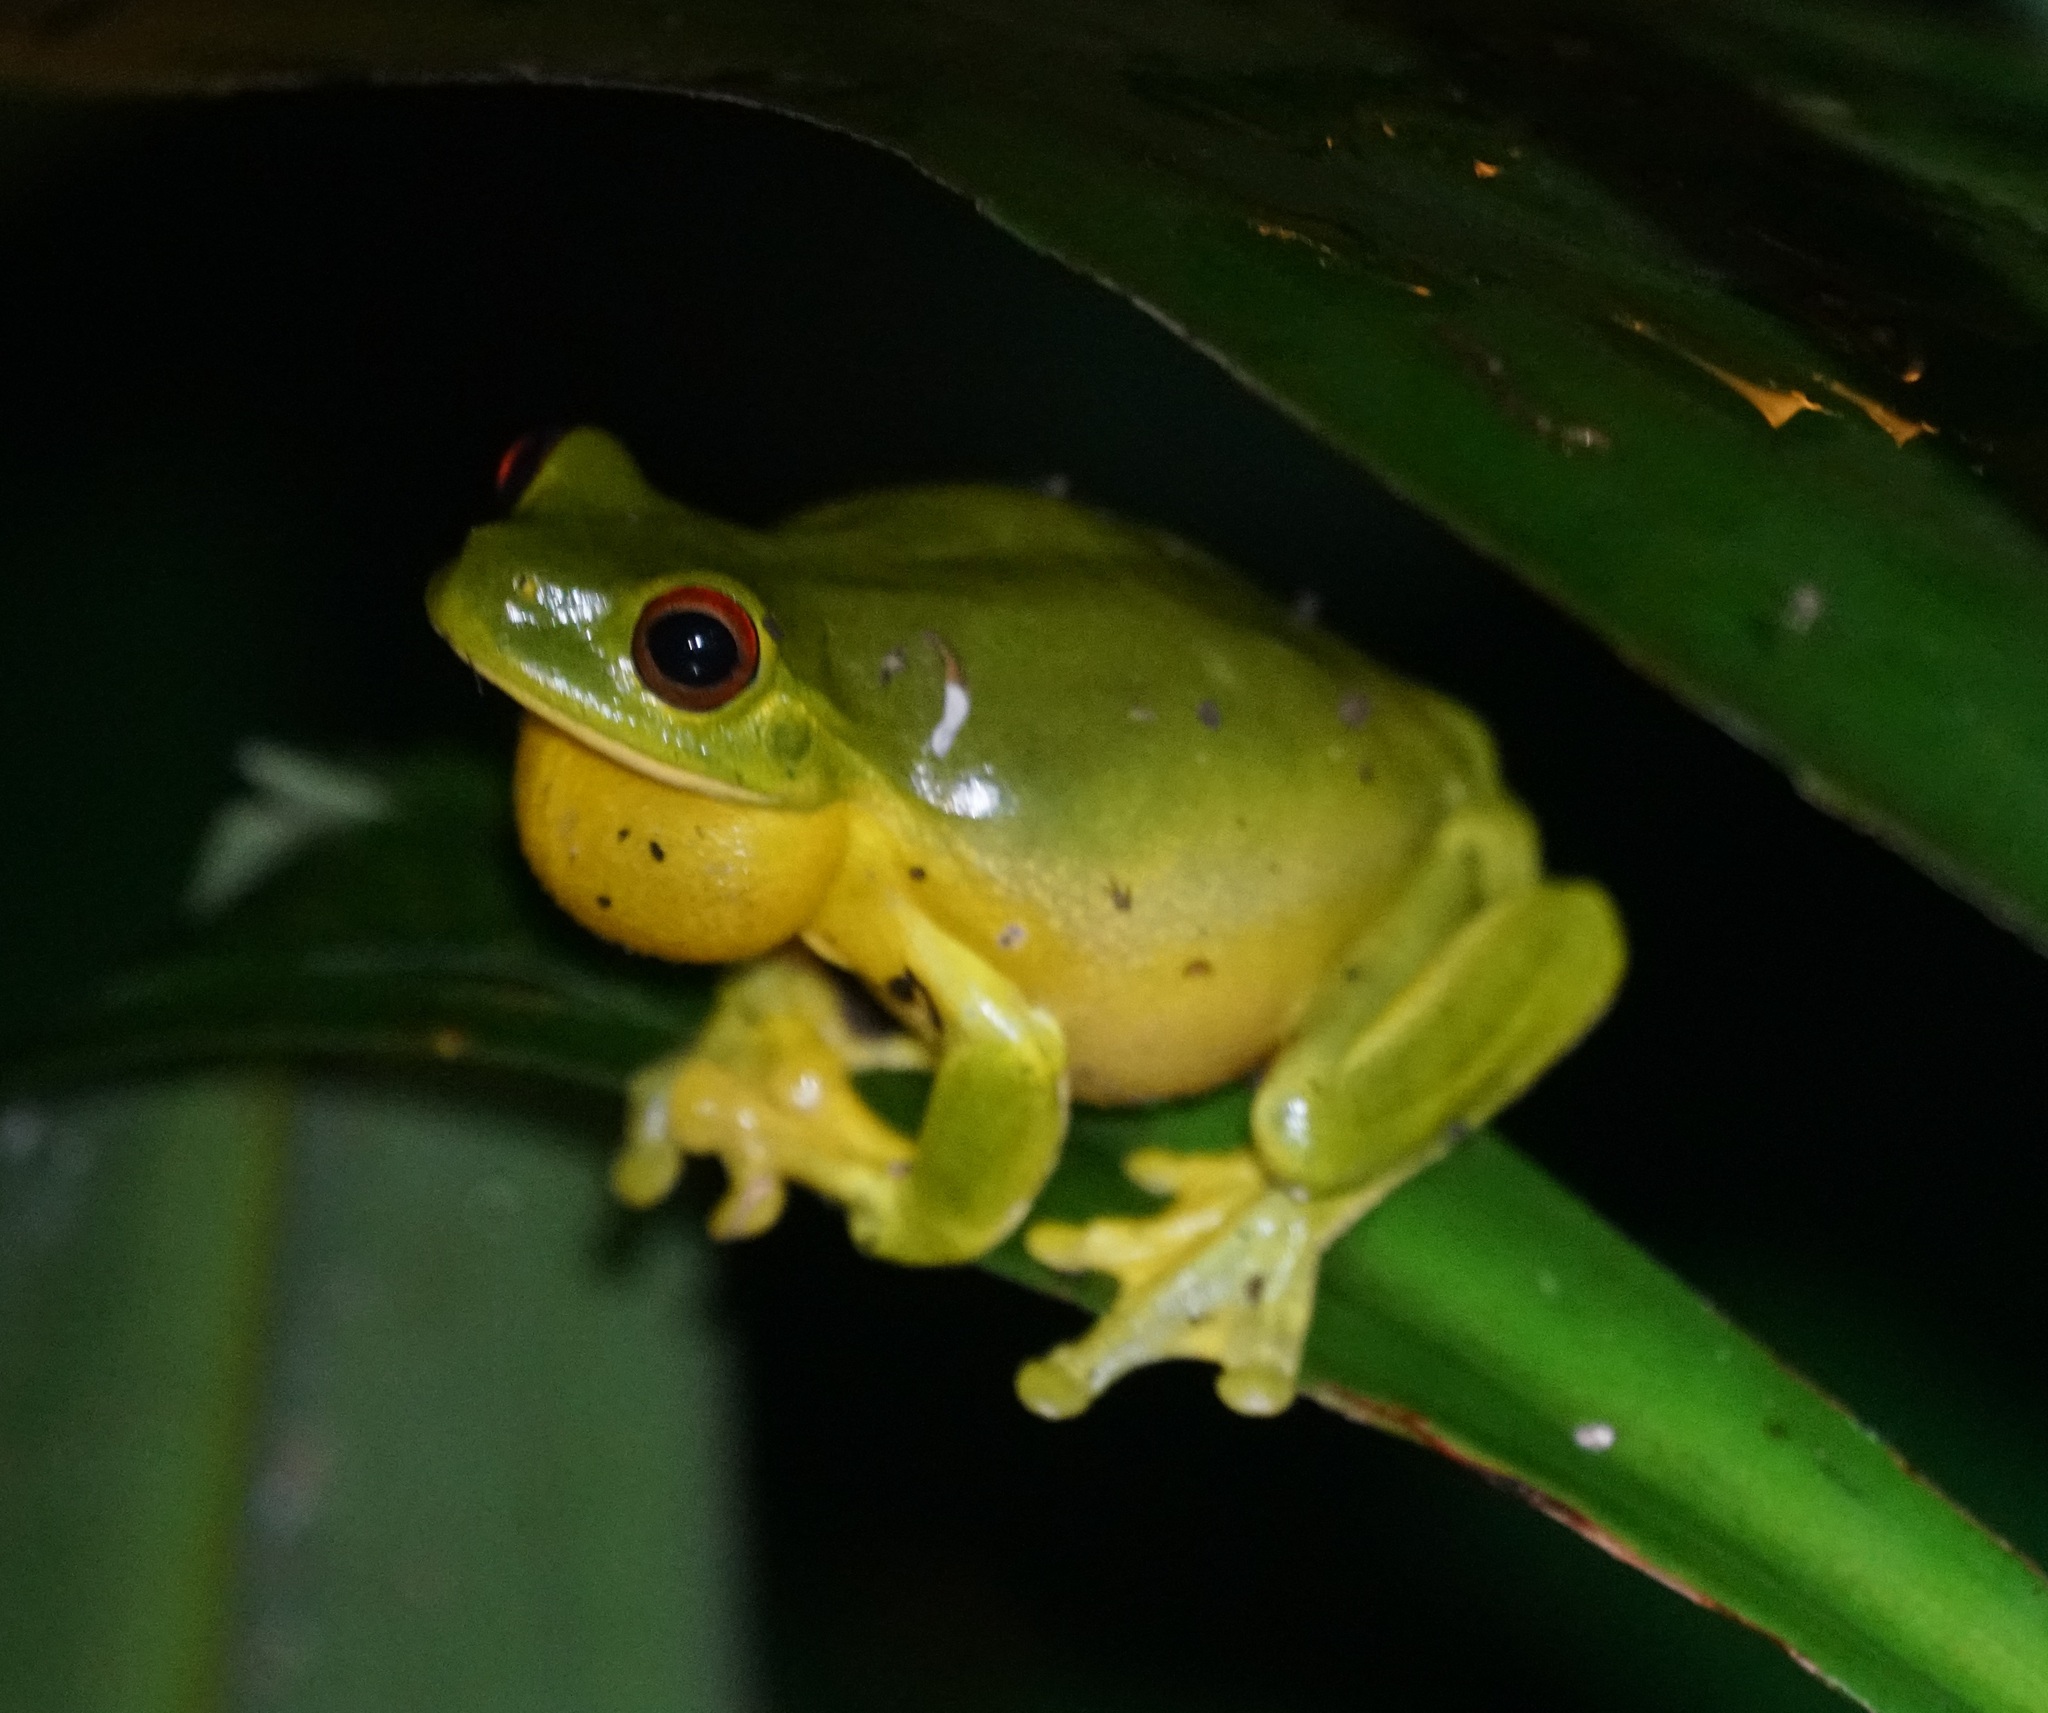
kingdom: Animalia
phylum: Chordata
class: Amphibia
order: Anura
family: Pelodryadidae
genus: Ranoidea
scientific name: Ranoidea chloris
